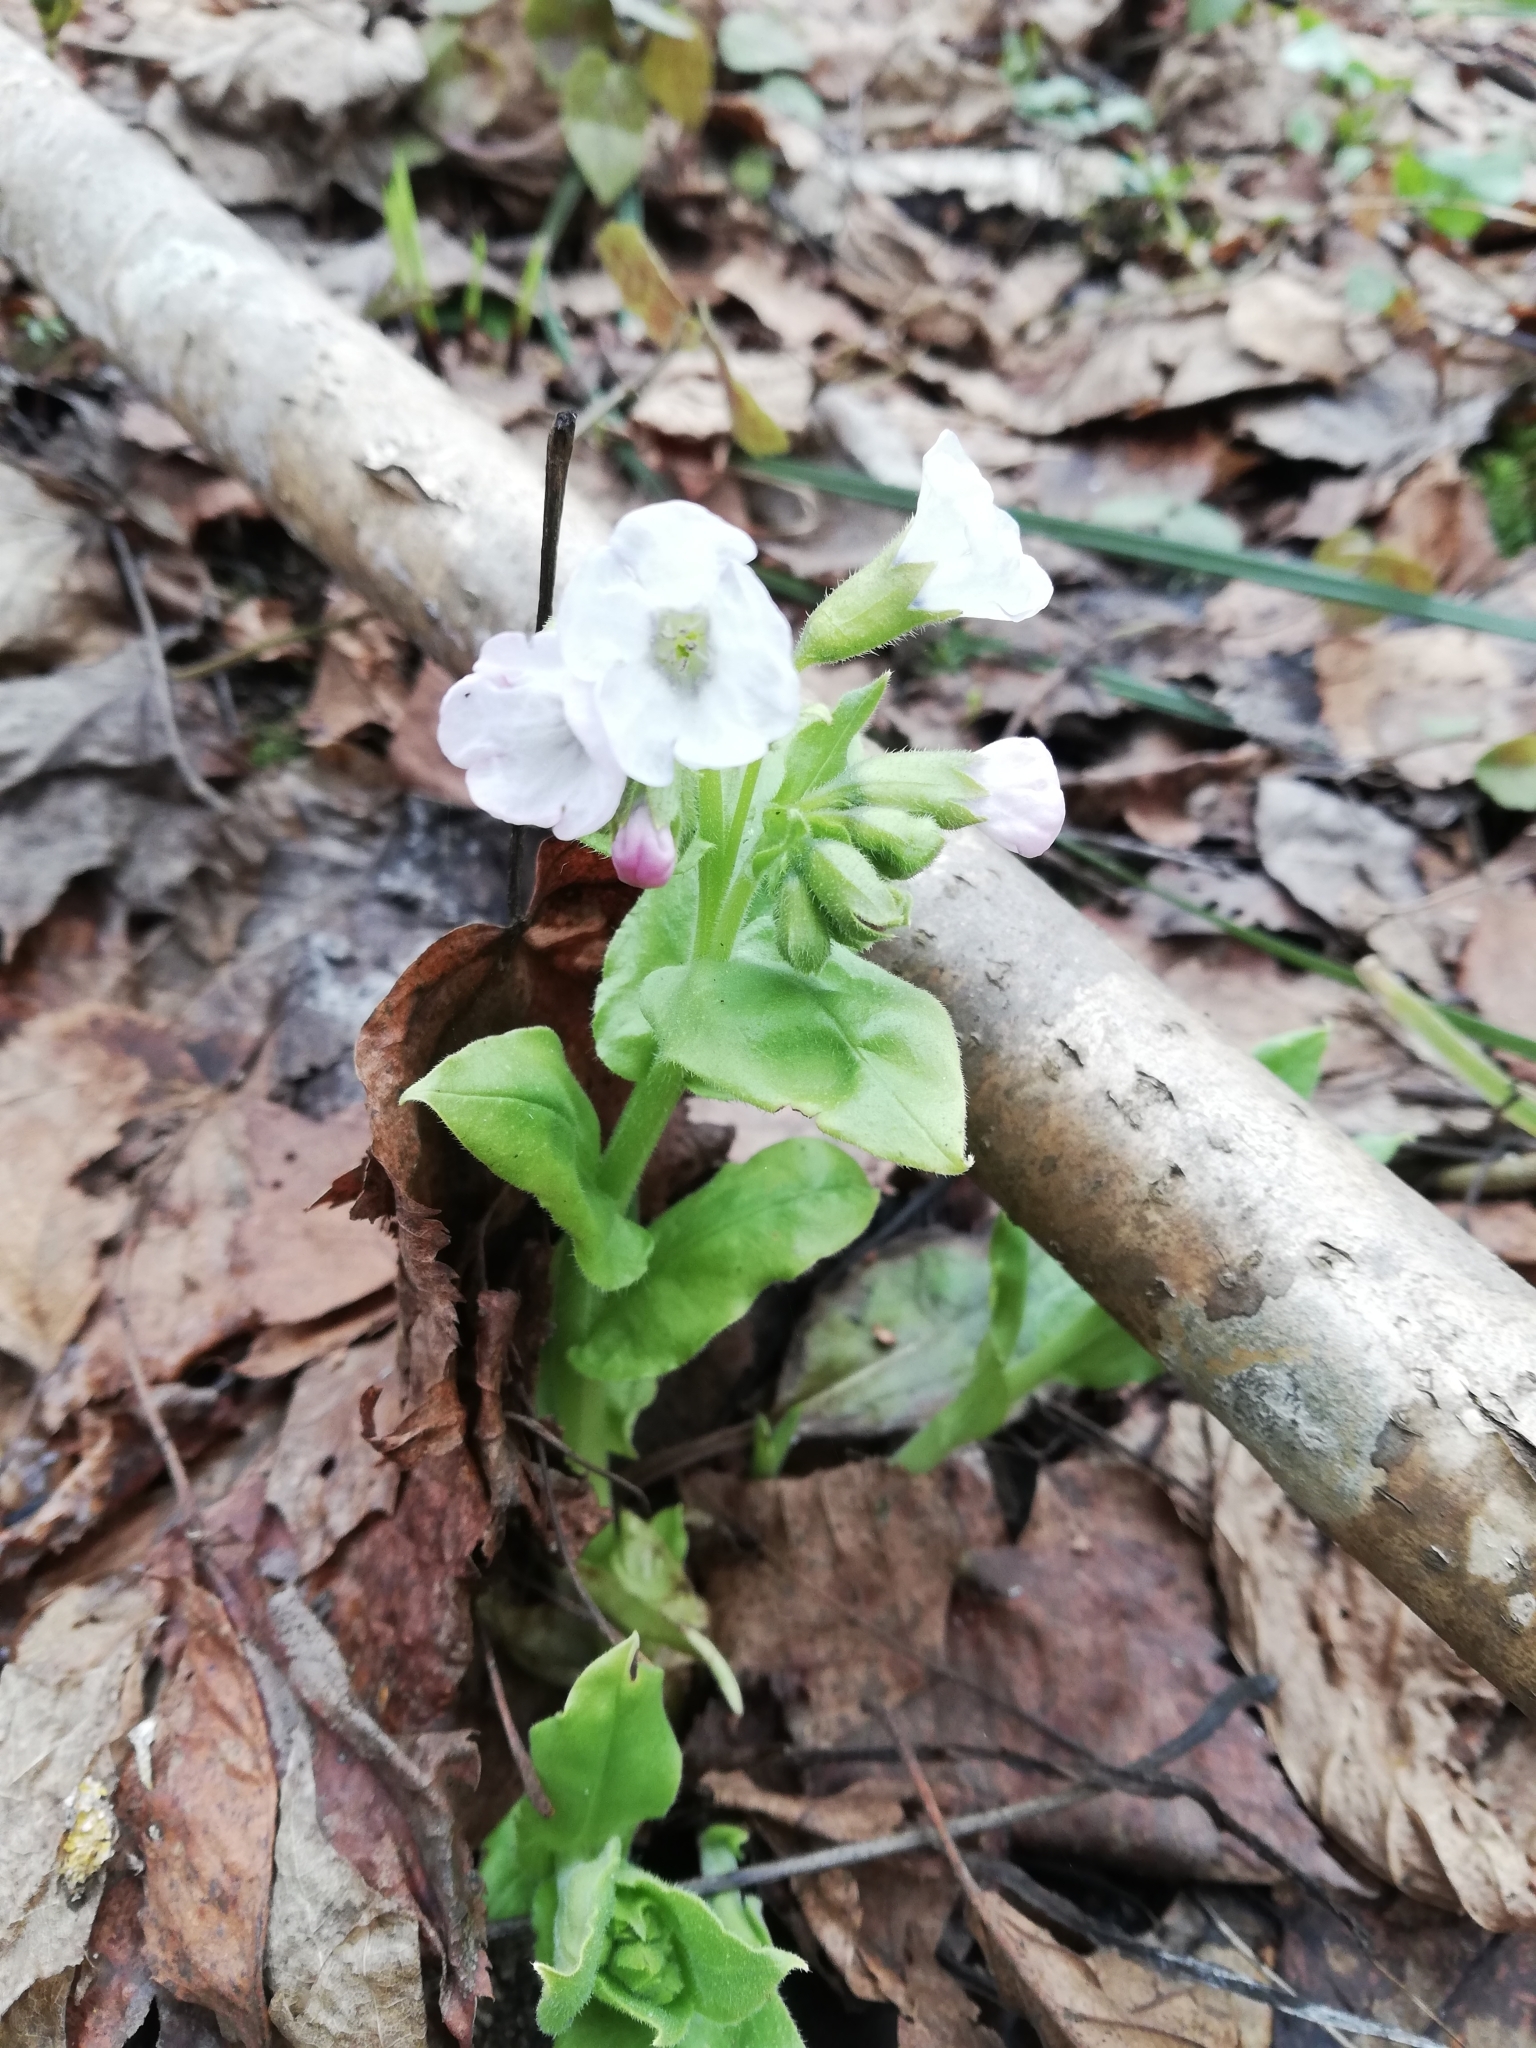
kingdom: Plantae
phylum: Tracheophyta
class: Magnoliopsida
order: Boraginales
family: Boraginaceae
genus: Pulmonaria
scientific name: Pulmonaria obscura
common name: Suffolk lungwort
